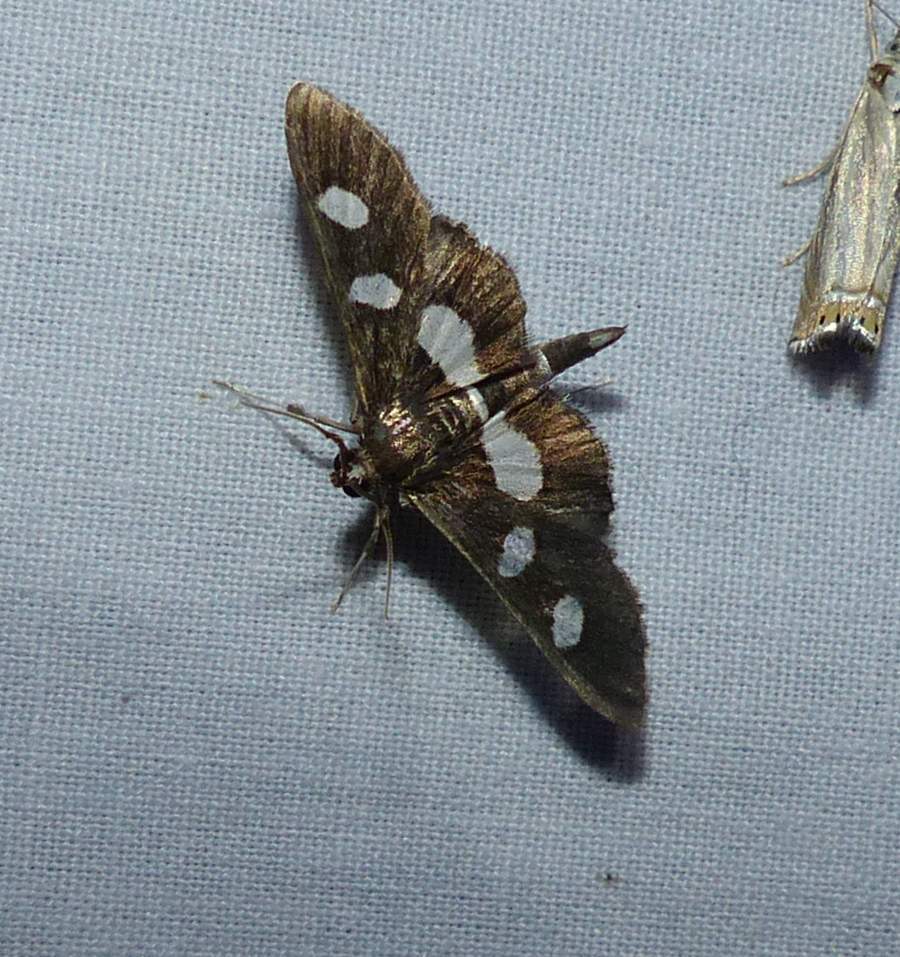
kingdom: Animalia
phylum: Arthropoda
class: Insecta
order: Lepidoptera
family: Crambidae
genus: Desmia
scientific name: Desmia
